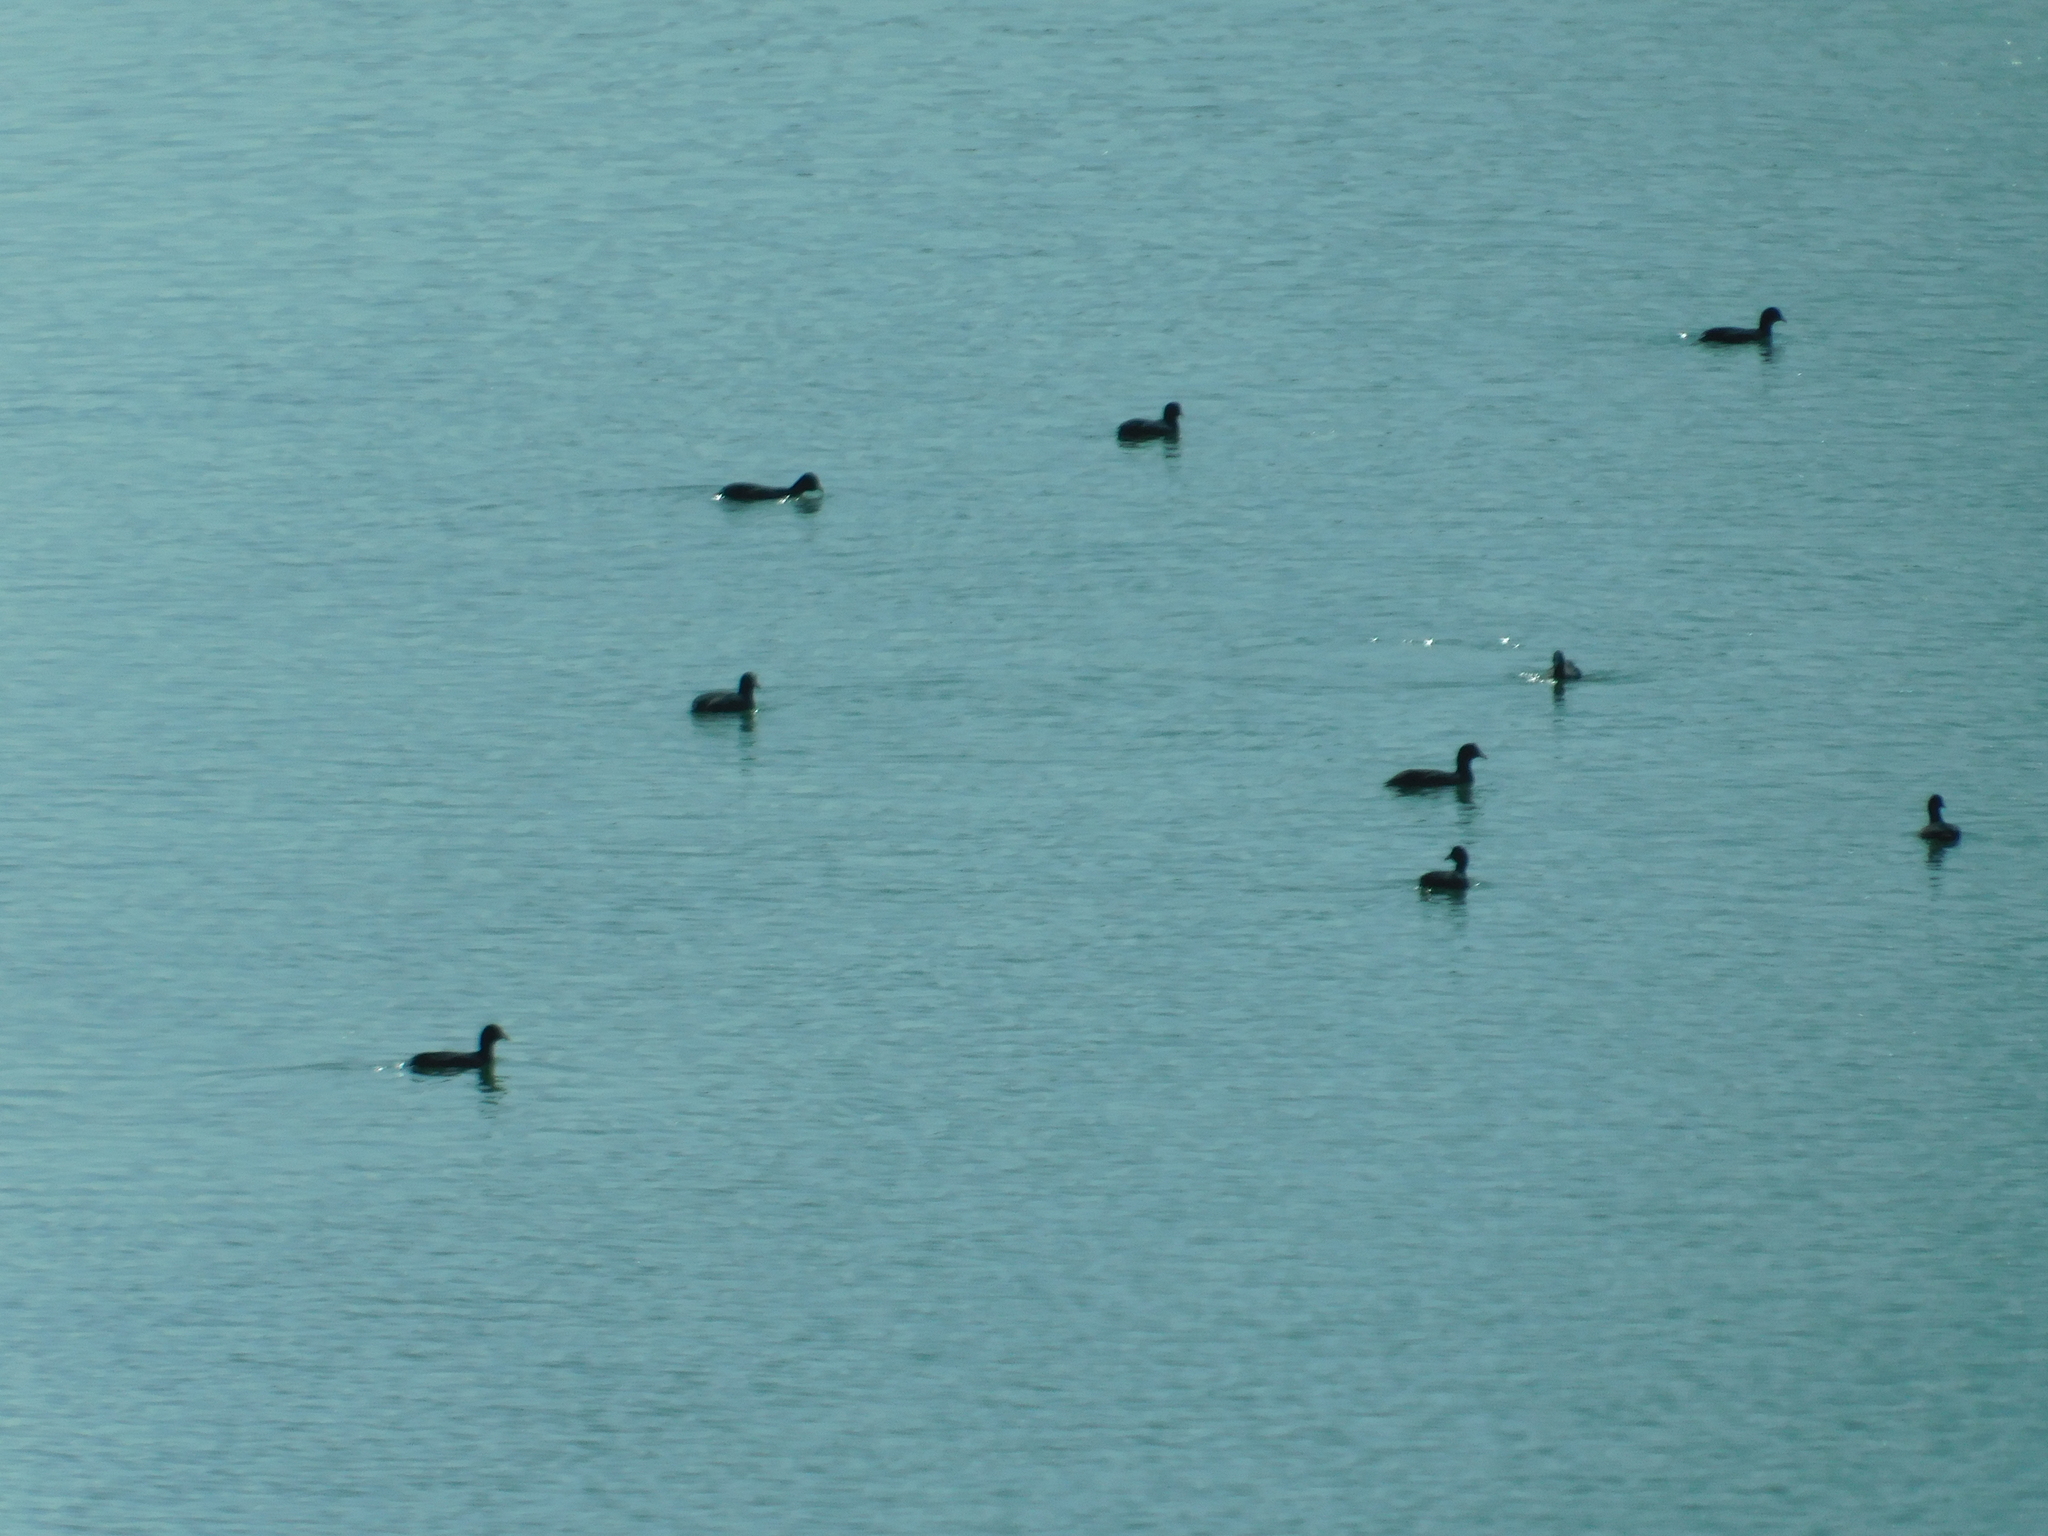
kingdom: Animalia
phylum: Chordata
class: Aves
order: Gruiformes
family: Rallidae
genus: Fulica
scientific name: Fulica atra
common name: Eurasian coot
